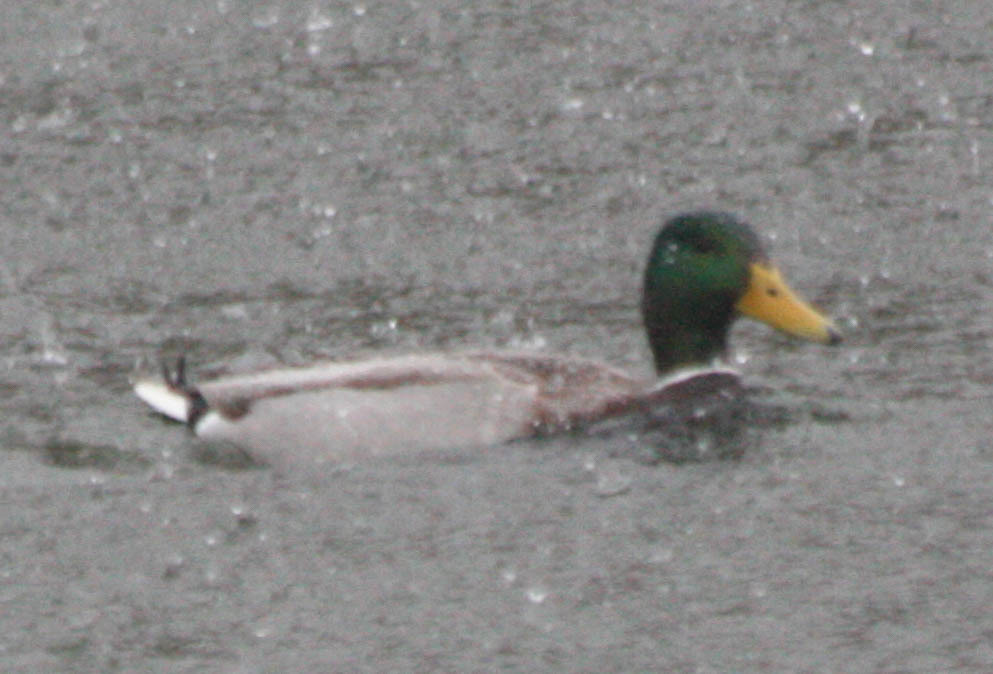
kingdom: Animalia
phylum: Chordata
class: Aves
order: Anseriformes
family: Anatidae
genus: Anas
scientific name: Anas platyrhynchos
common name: Mallard
